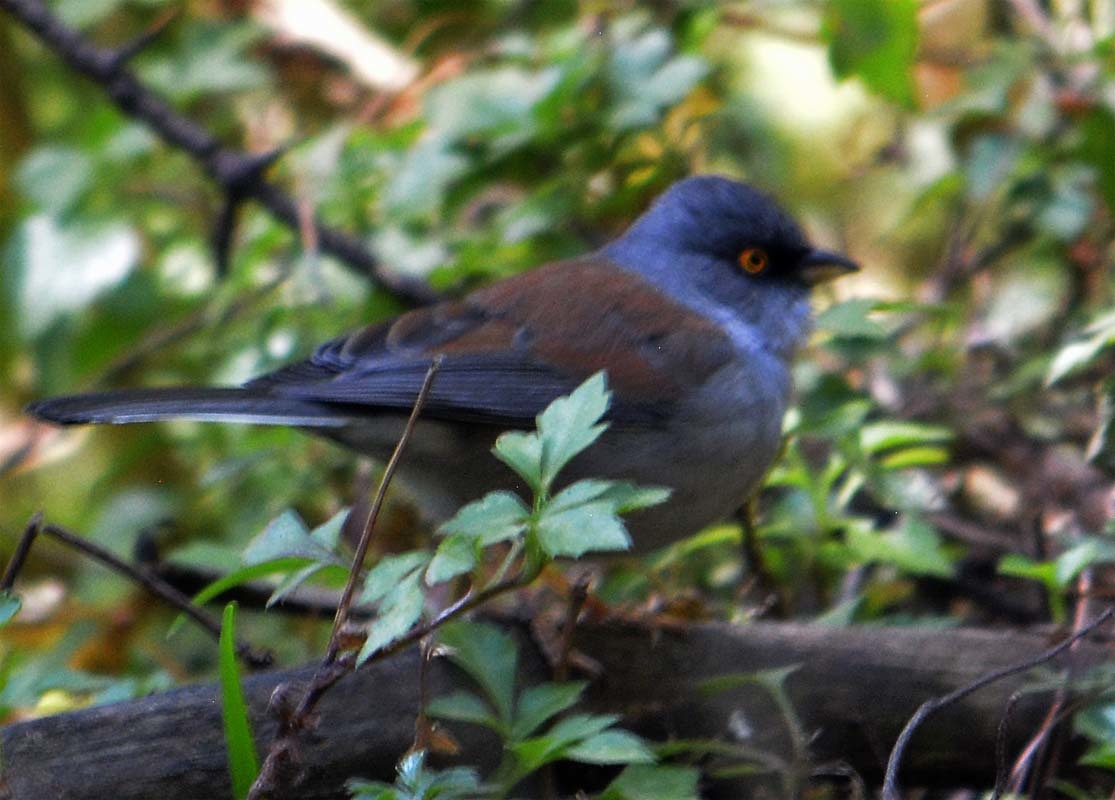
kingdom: Animalia
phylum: Chordata
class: Aves
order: Passeriformes
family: Passerellidae
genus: Junco
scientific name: Junco phaeonotus
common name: Yellow-eyed junco
